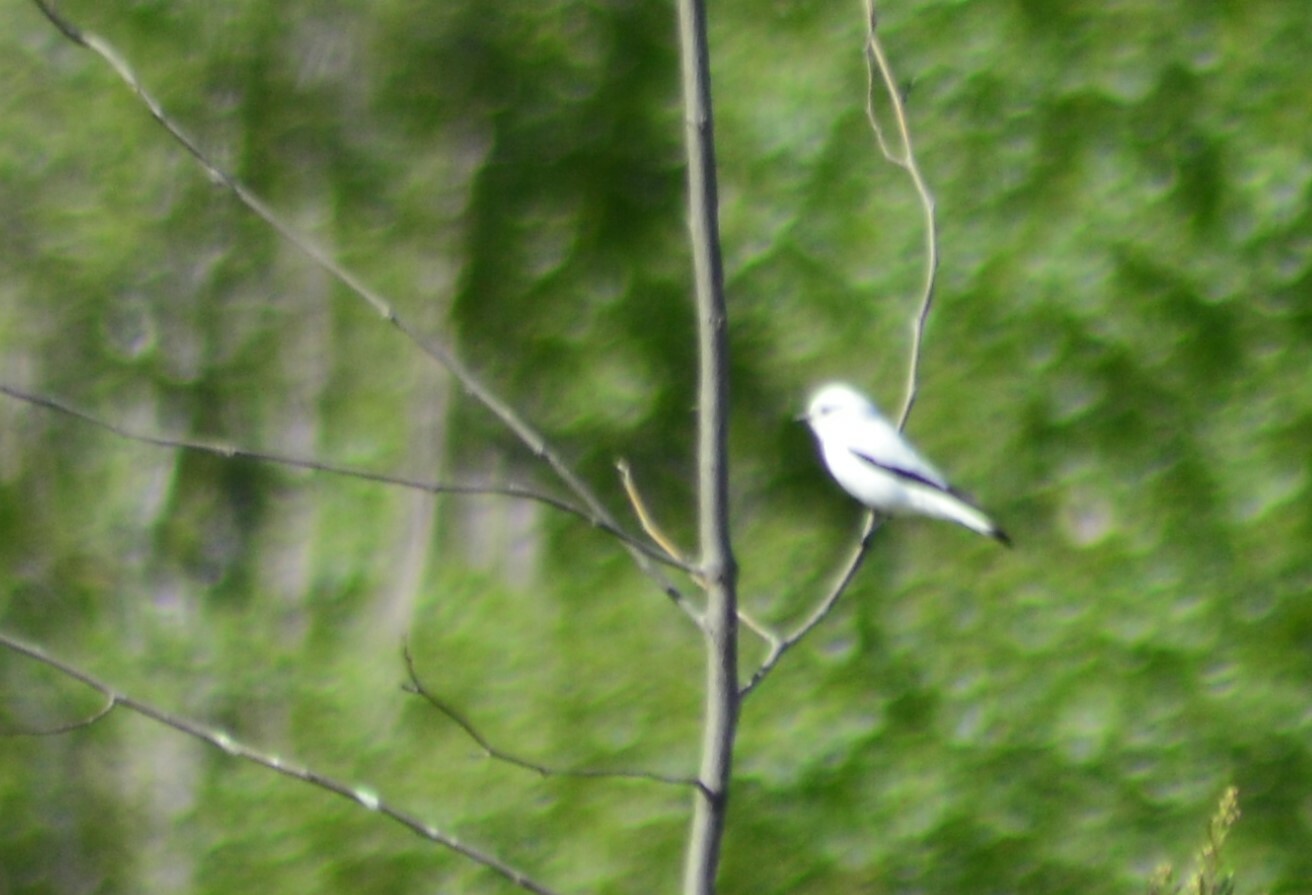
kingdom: Animalia
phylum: Chordata
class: Aves
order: Passeriformes
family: Tyrannidae
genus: Xolmis
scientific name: Xolmis irupero
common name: White monjita
